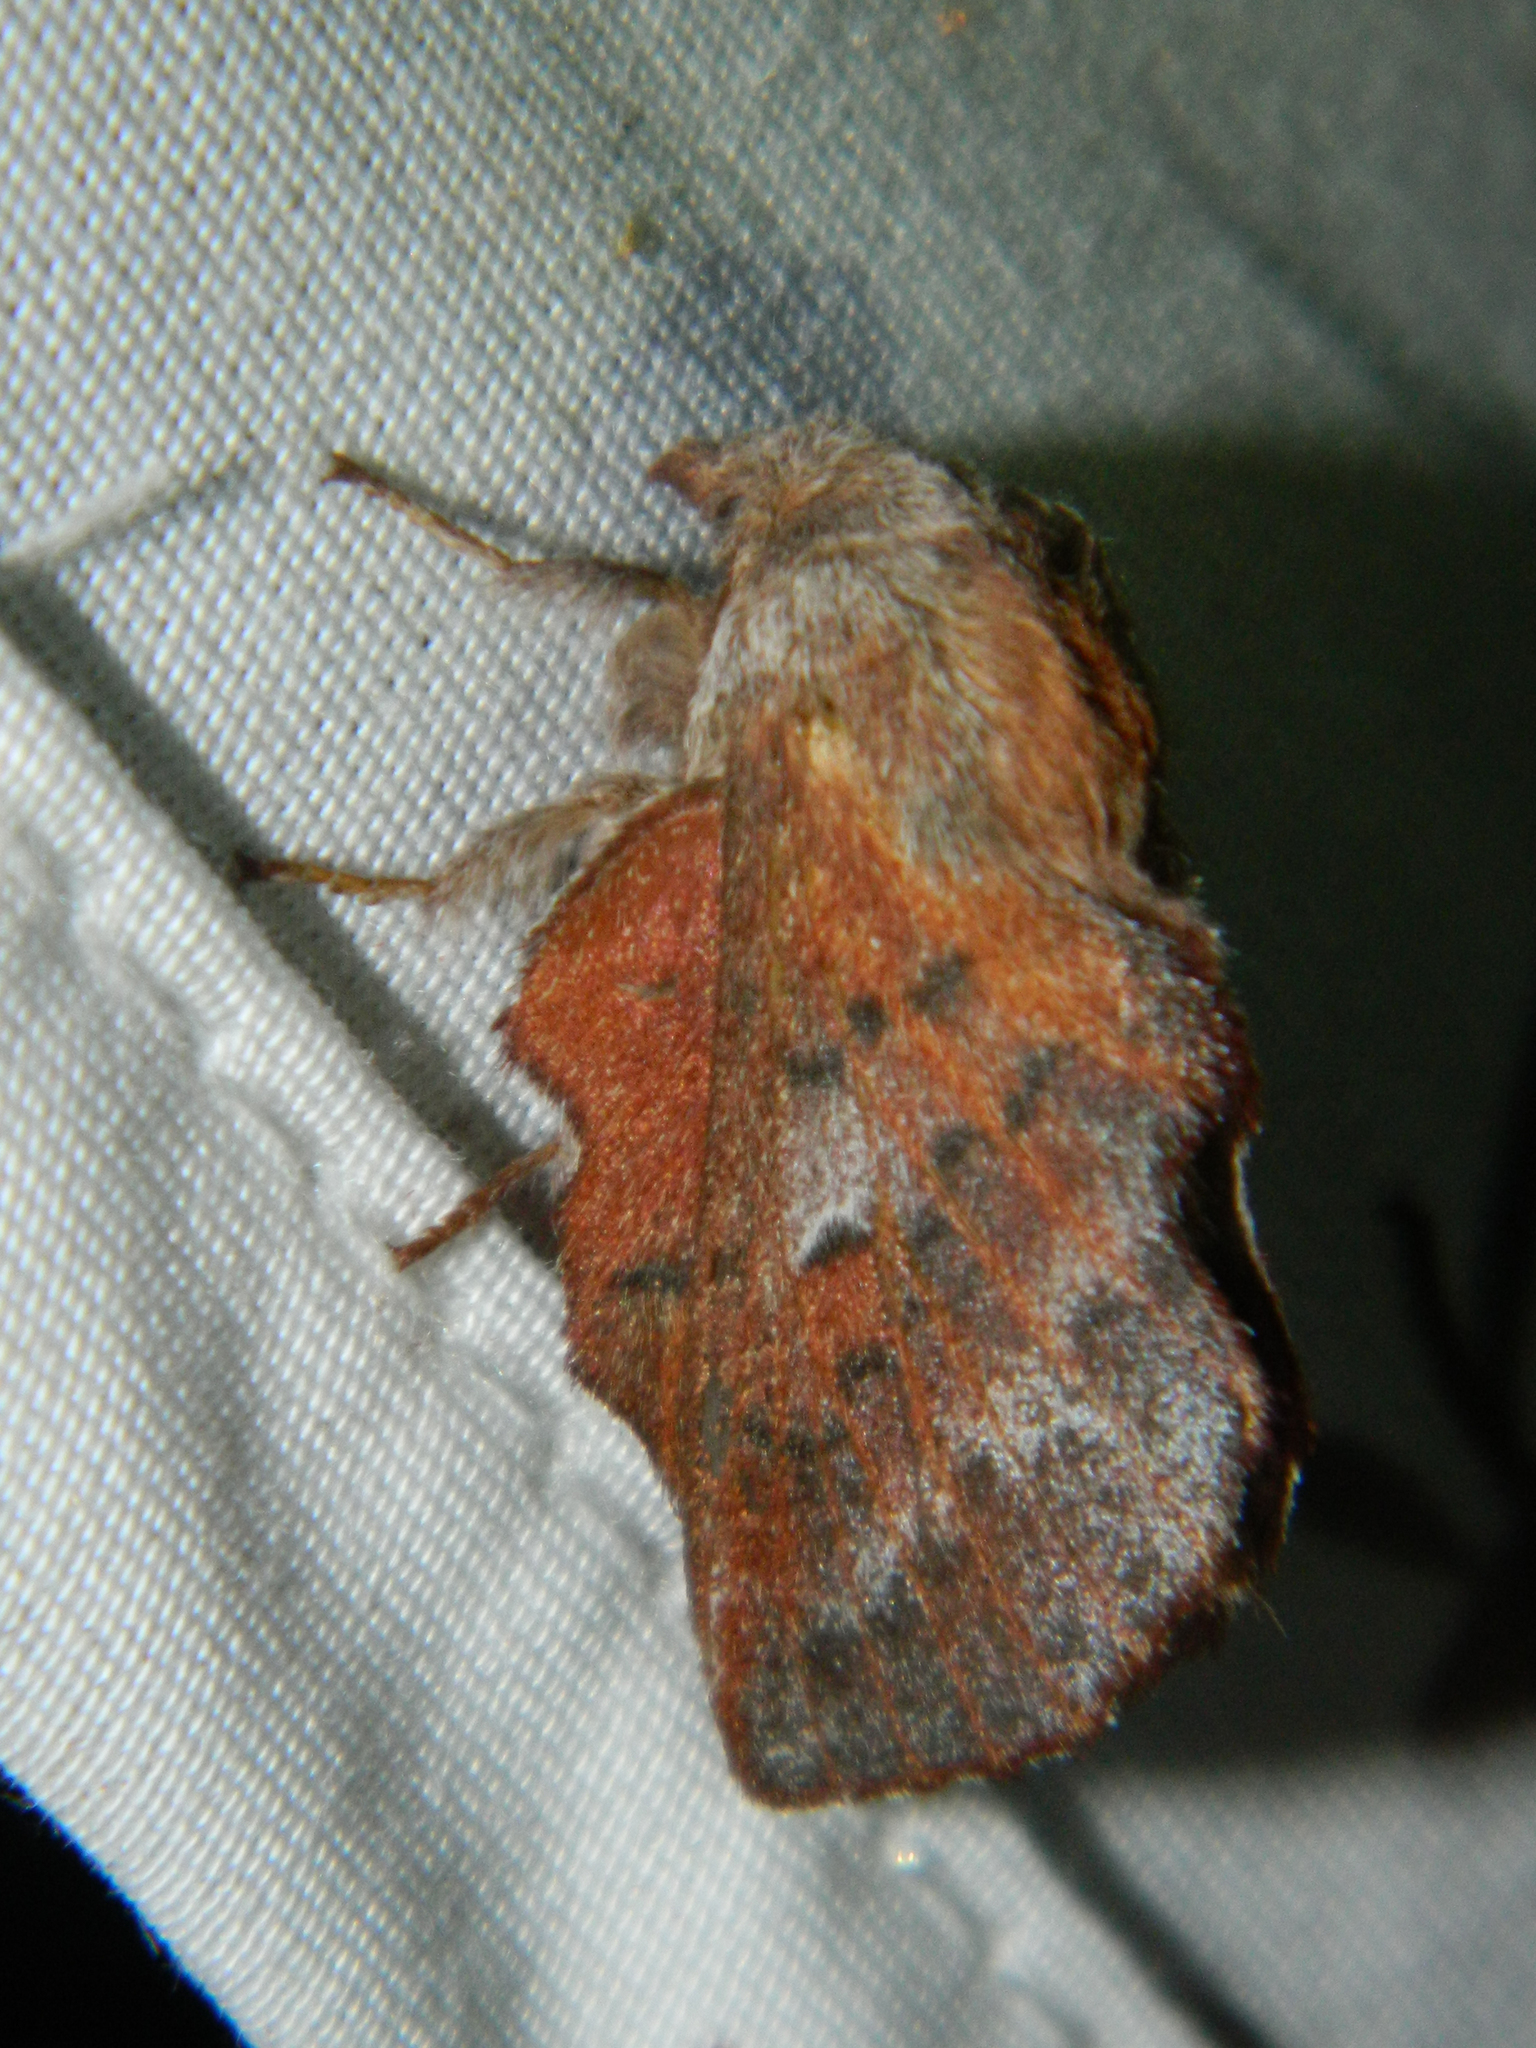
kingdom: Animalia
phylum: Arthropoda
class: Insecta
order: Lepidoptera
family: Lasiocampidae
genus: Phyllodesma
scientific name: Phyllodesma americana
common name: American lappet moth
